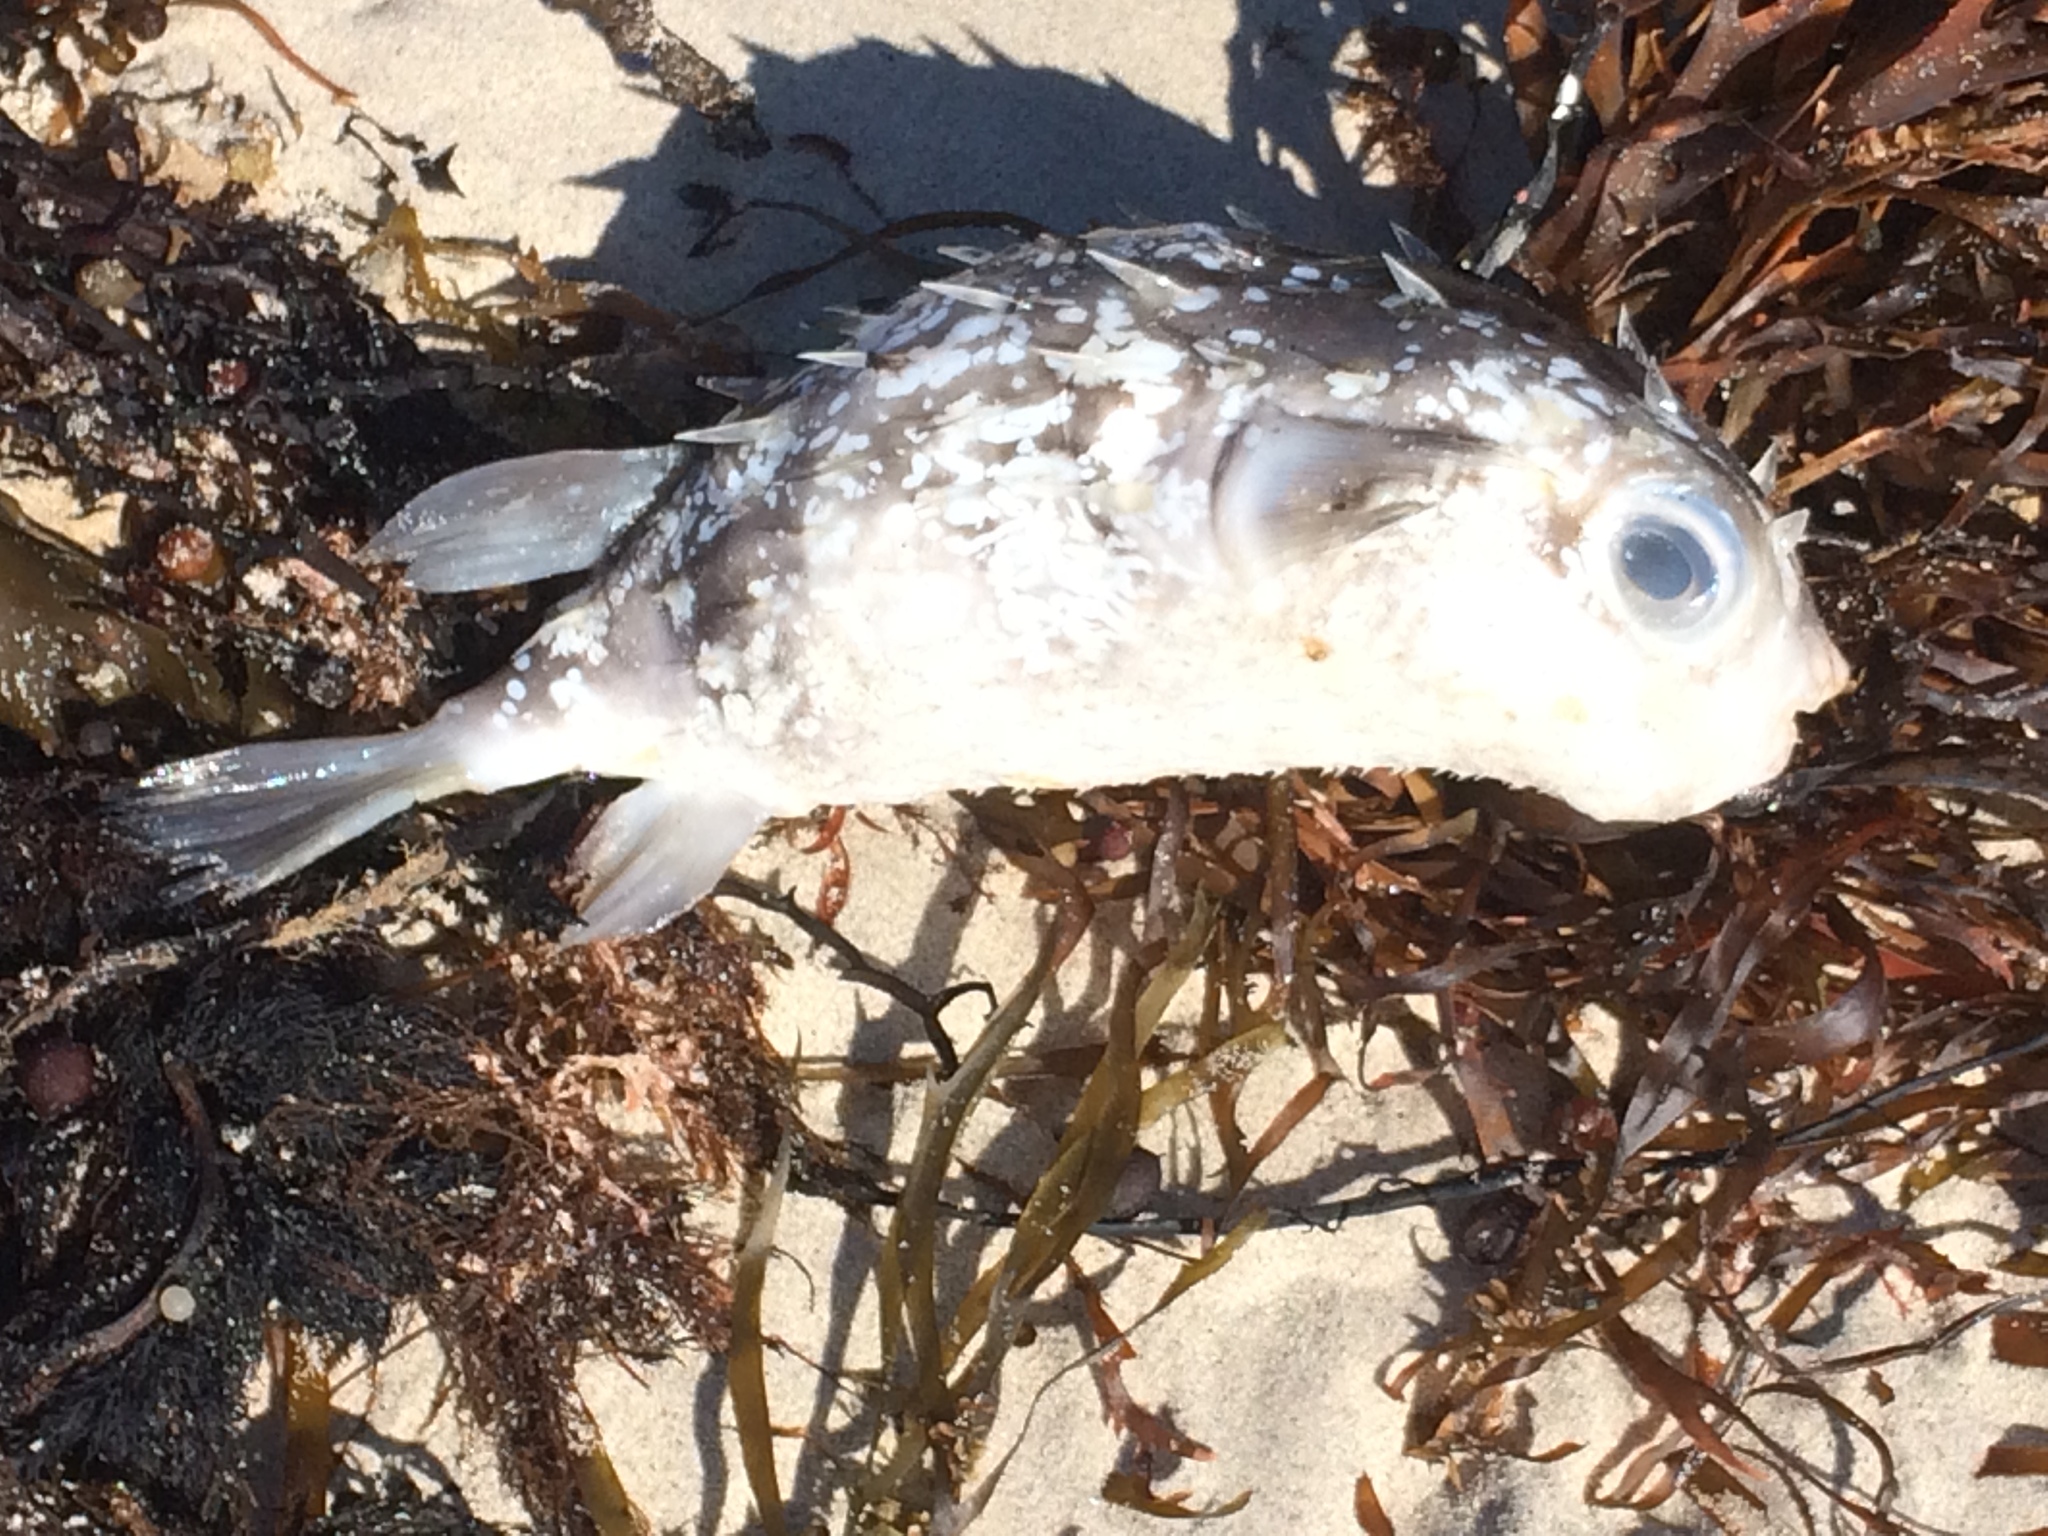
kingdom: Animalia
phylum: Chordata
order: Tetraodontiformes
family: Diodontidae
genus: Allomycterus
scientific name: Allomycterus pilatus
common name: No common name
